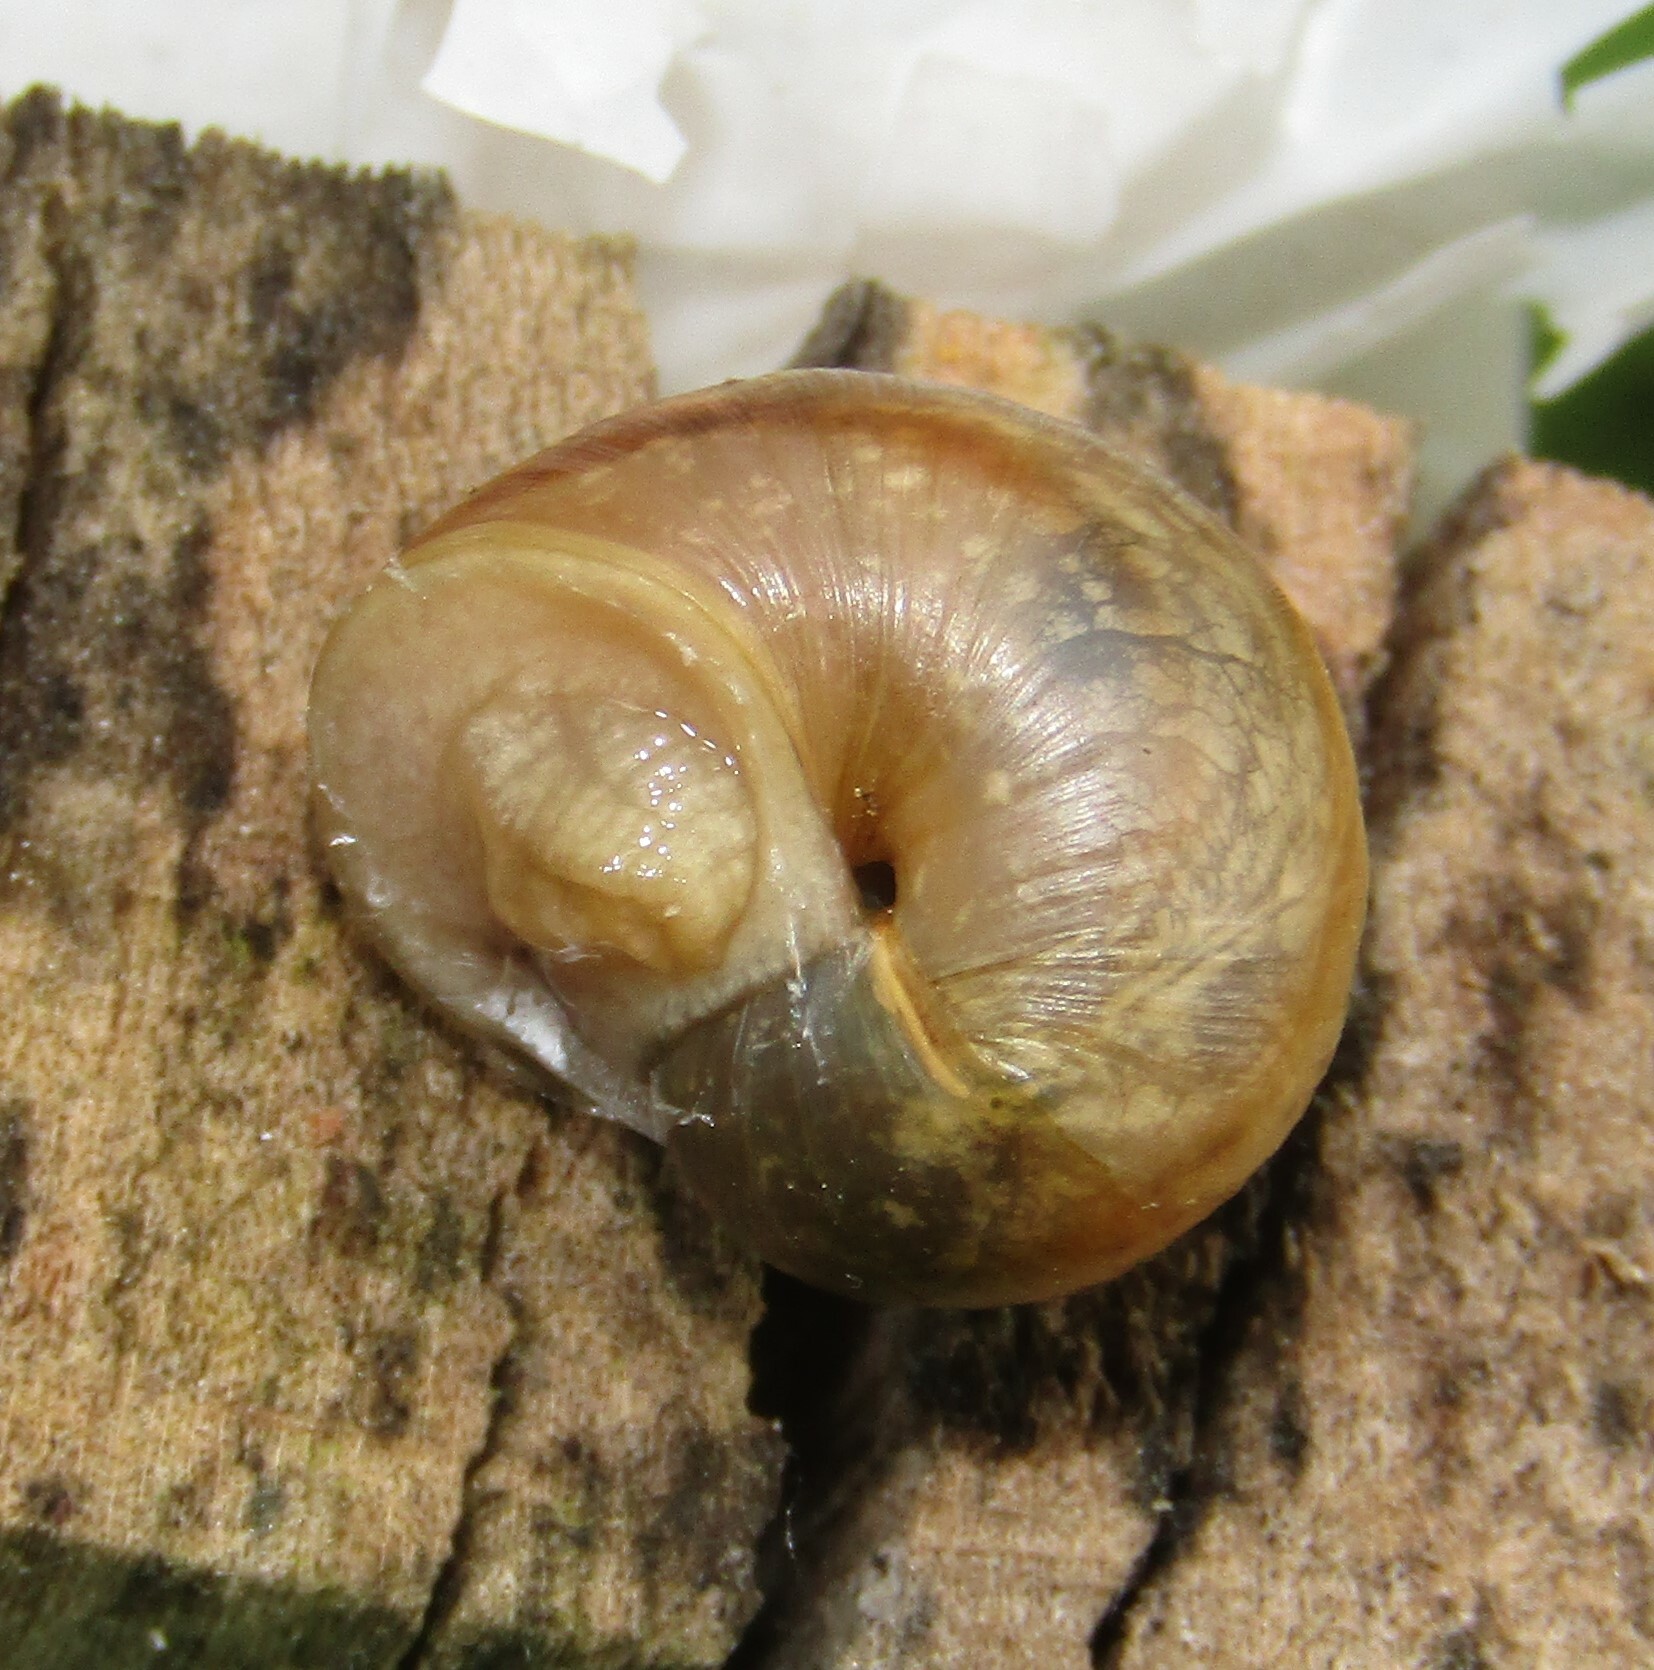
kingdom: Animalia
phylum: Mollusca
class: Gastropoda
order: Stylommatophora
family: Helicidae
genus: Helix
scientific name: Helix pomatia
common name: Roman snail
